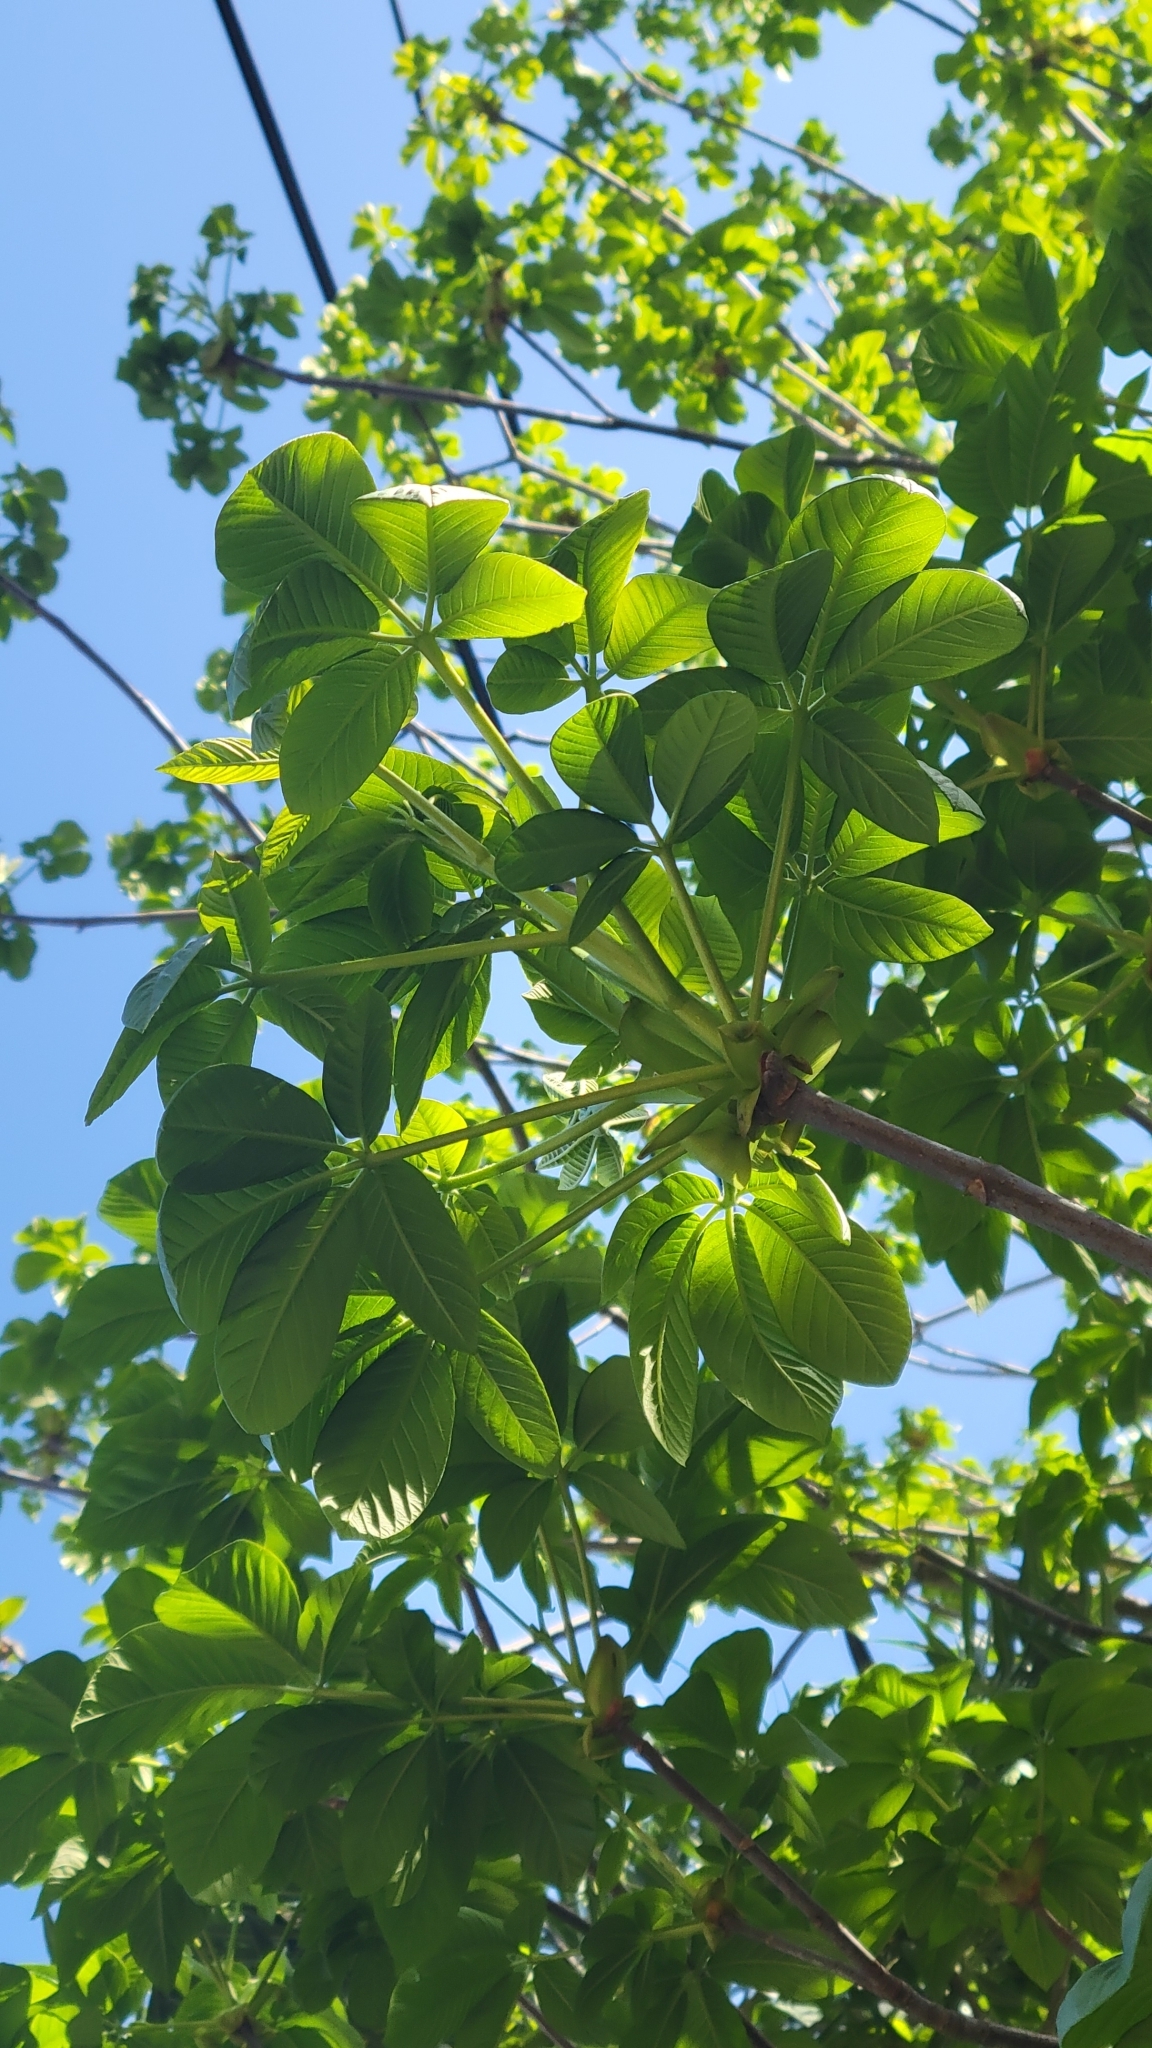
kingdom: Plantae
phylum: Tracheophyta
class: Magnoliopsida
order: Sapindales
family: Sapindaceae
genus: Aesculus
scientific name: Aesculus californica
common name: California buckeye
